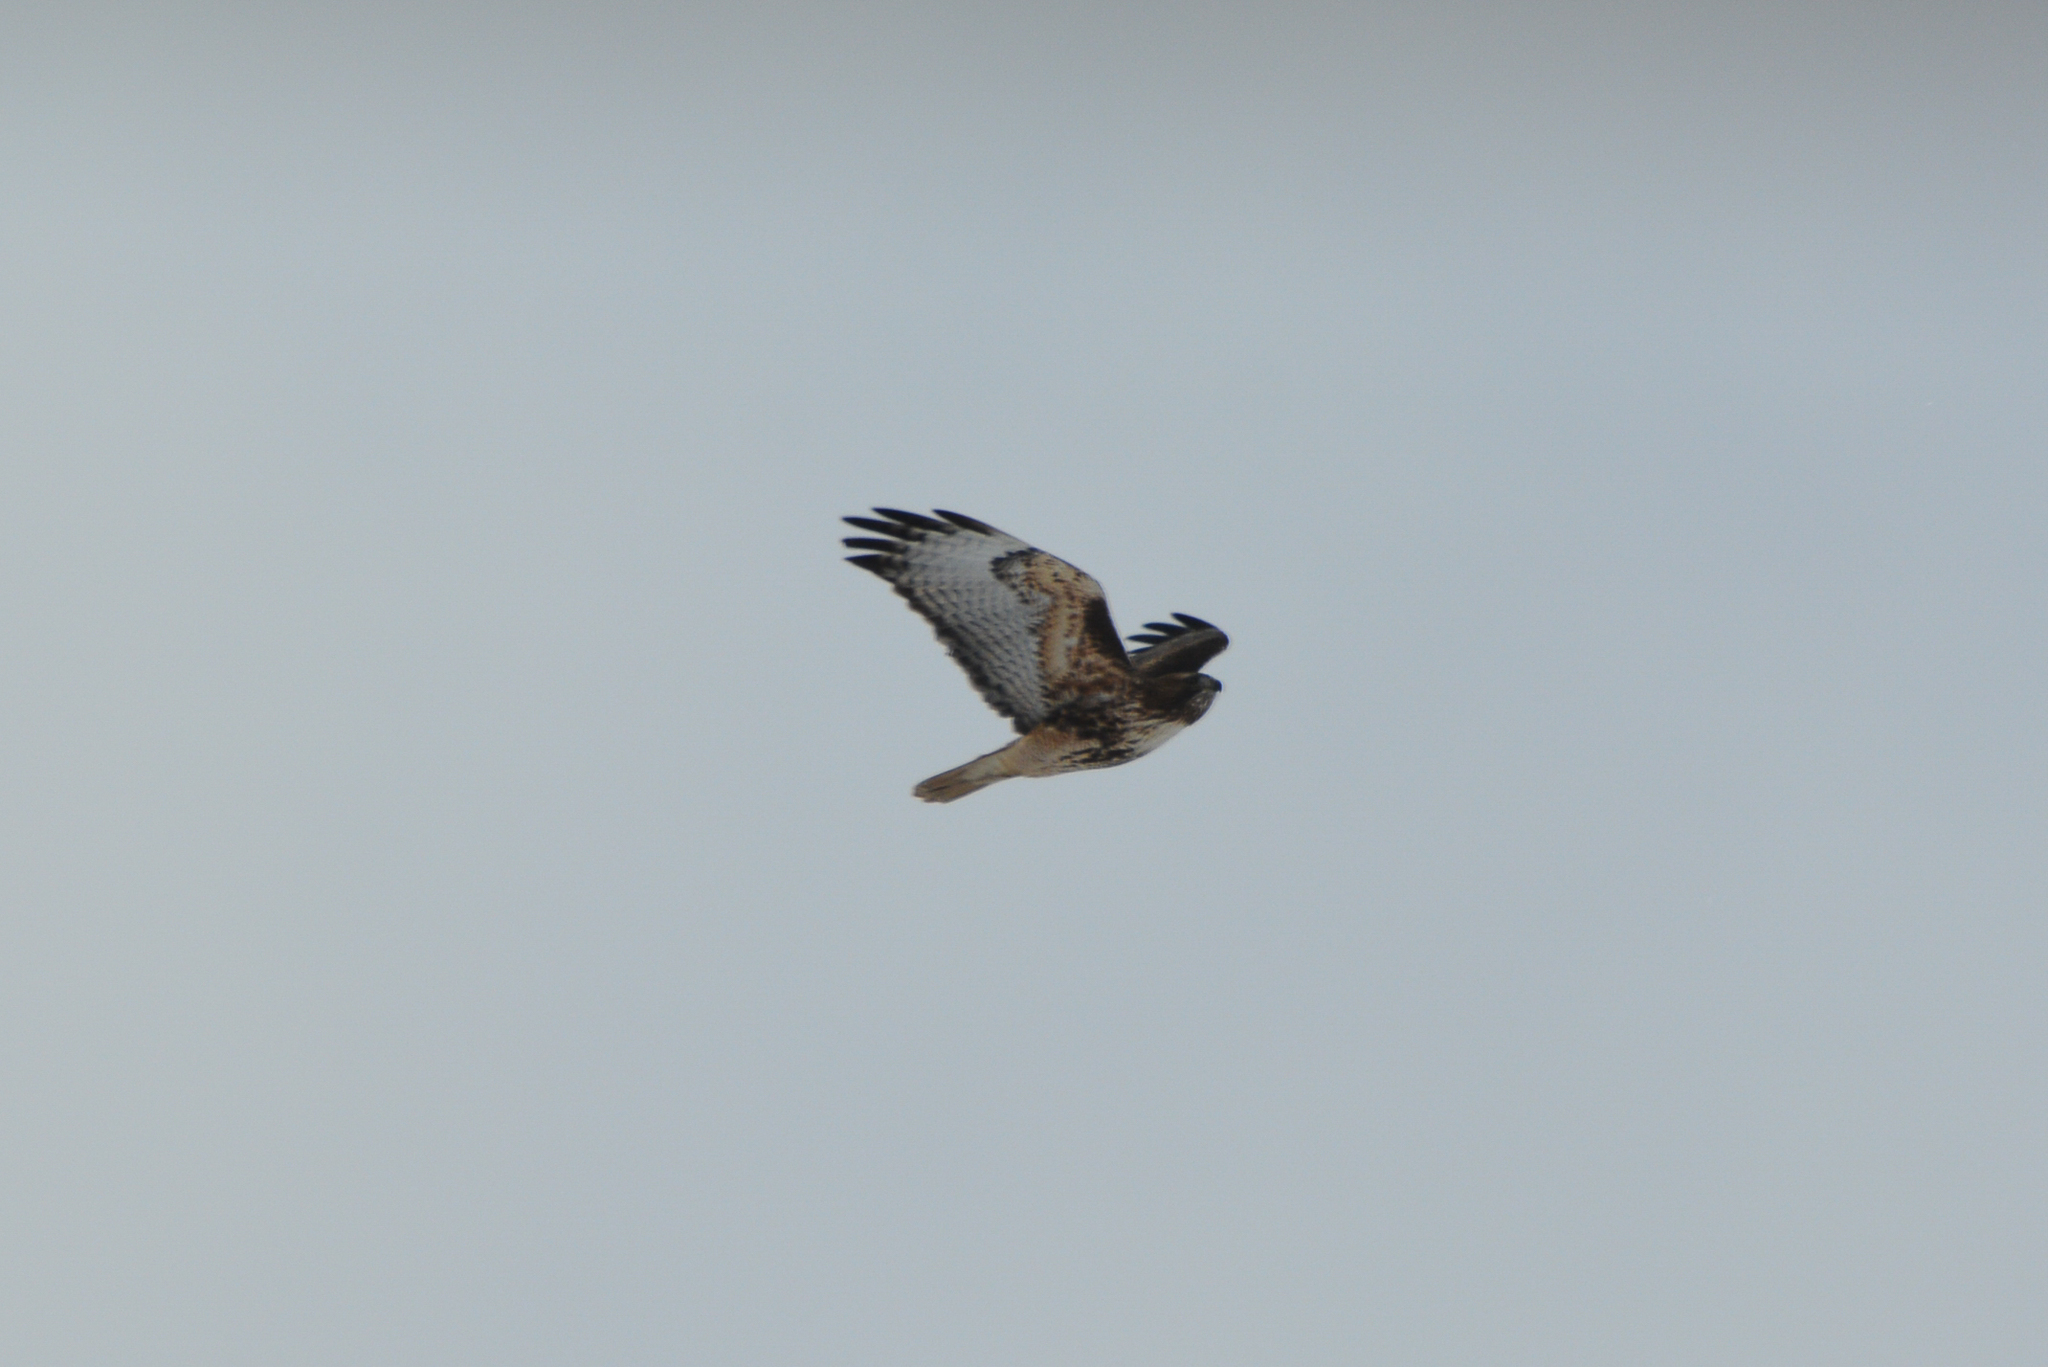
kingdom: Animalia
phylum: Chordata
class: Aves
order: Accipitriformes
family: Accipitridae
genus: Buteo
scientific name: Buteo jamaicensis
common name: Red-tailed hawk
